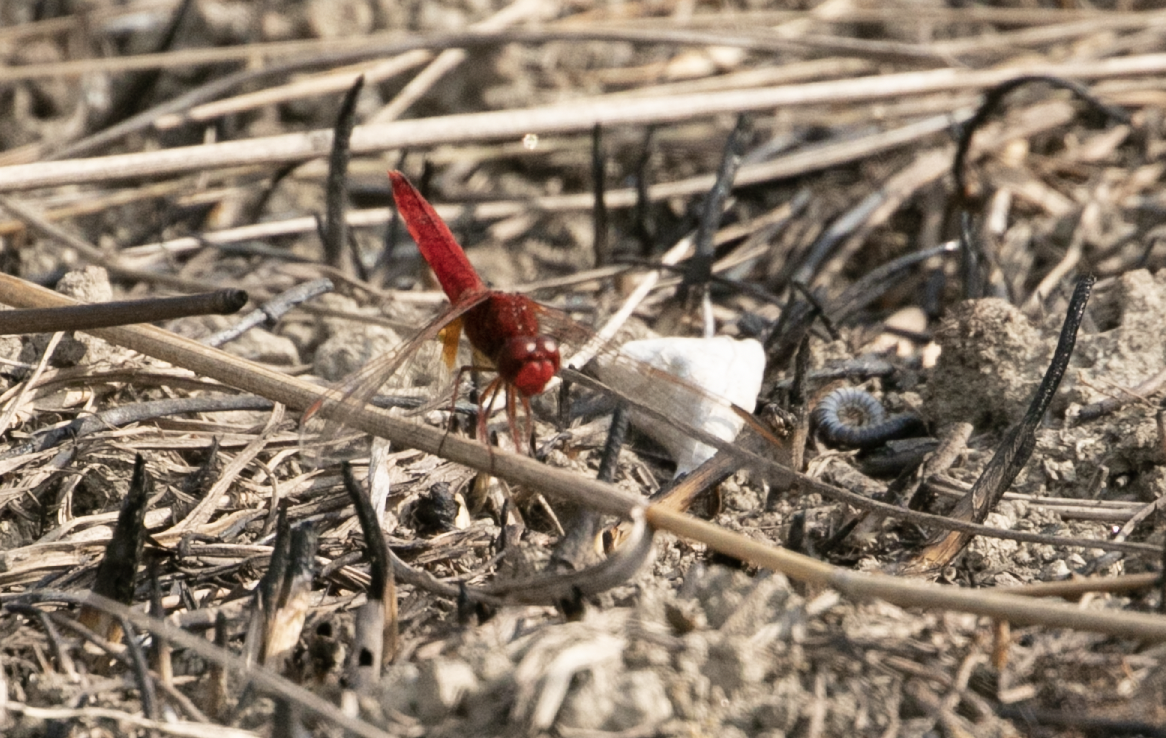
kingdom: Animalia
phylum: Arthropoda
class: Insecta
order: Odonata
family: Libellulidae
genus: Crocothemis
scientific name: Crocothemis erythraea
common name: Scarlet dragonfly
